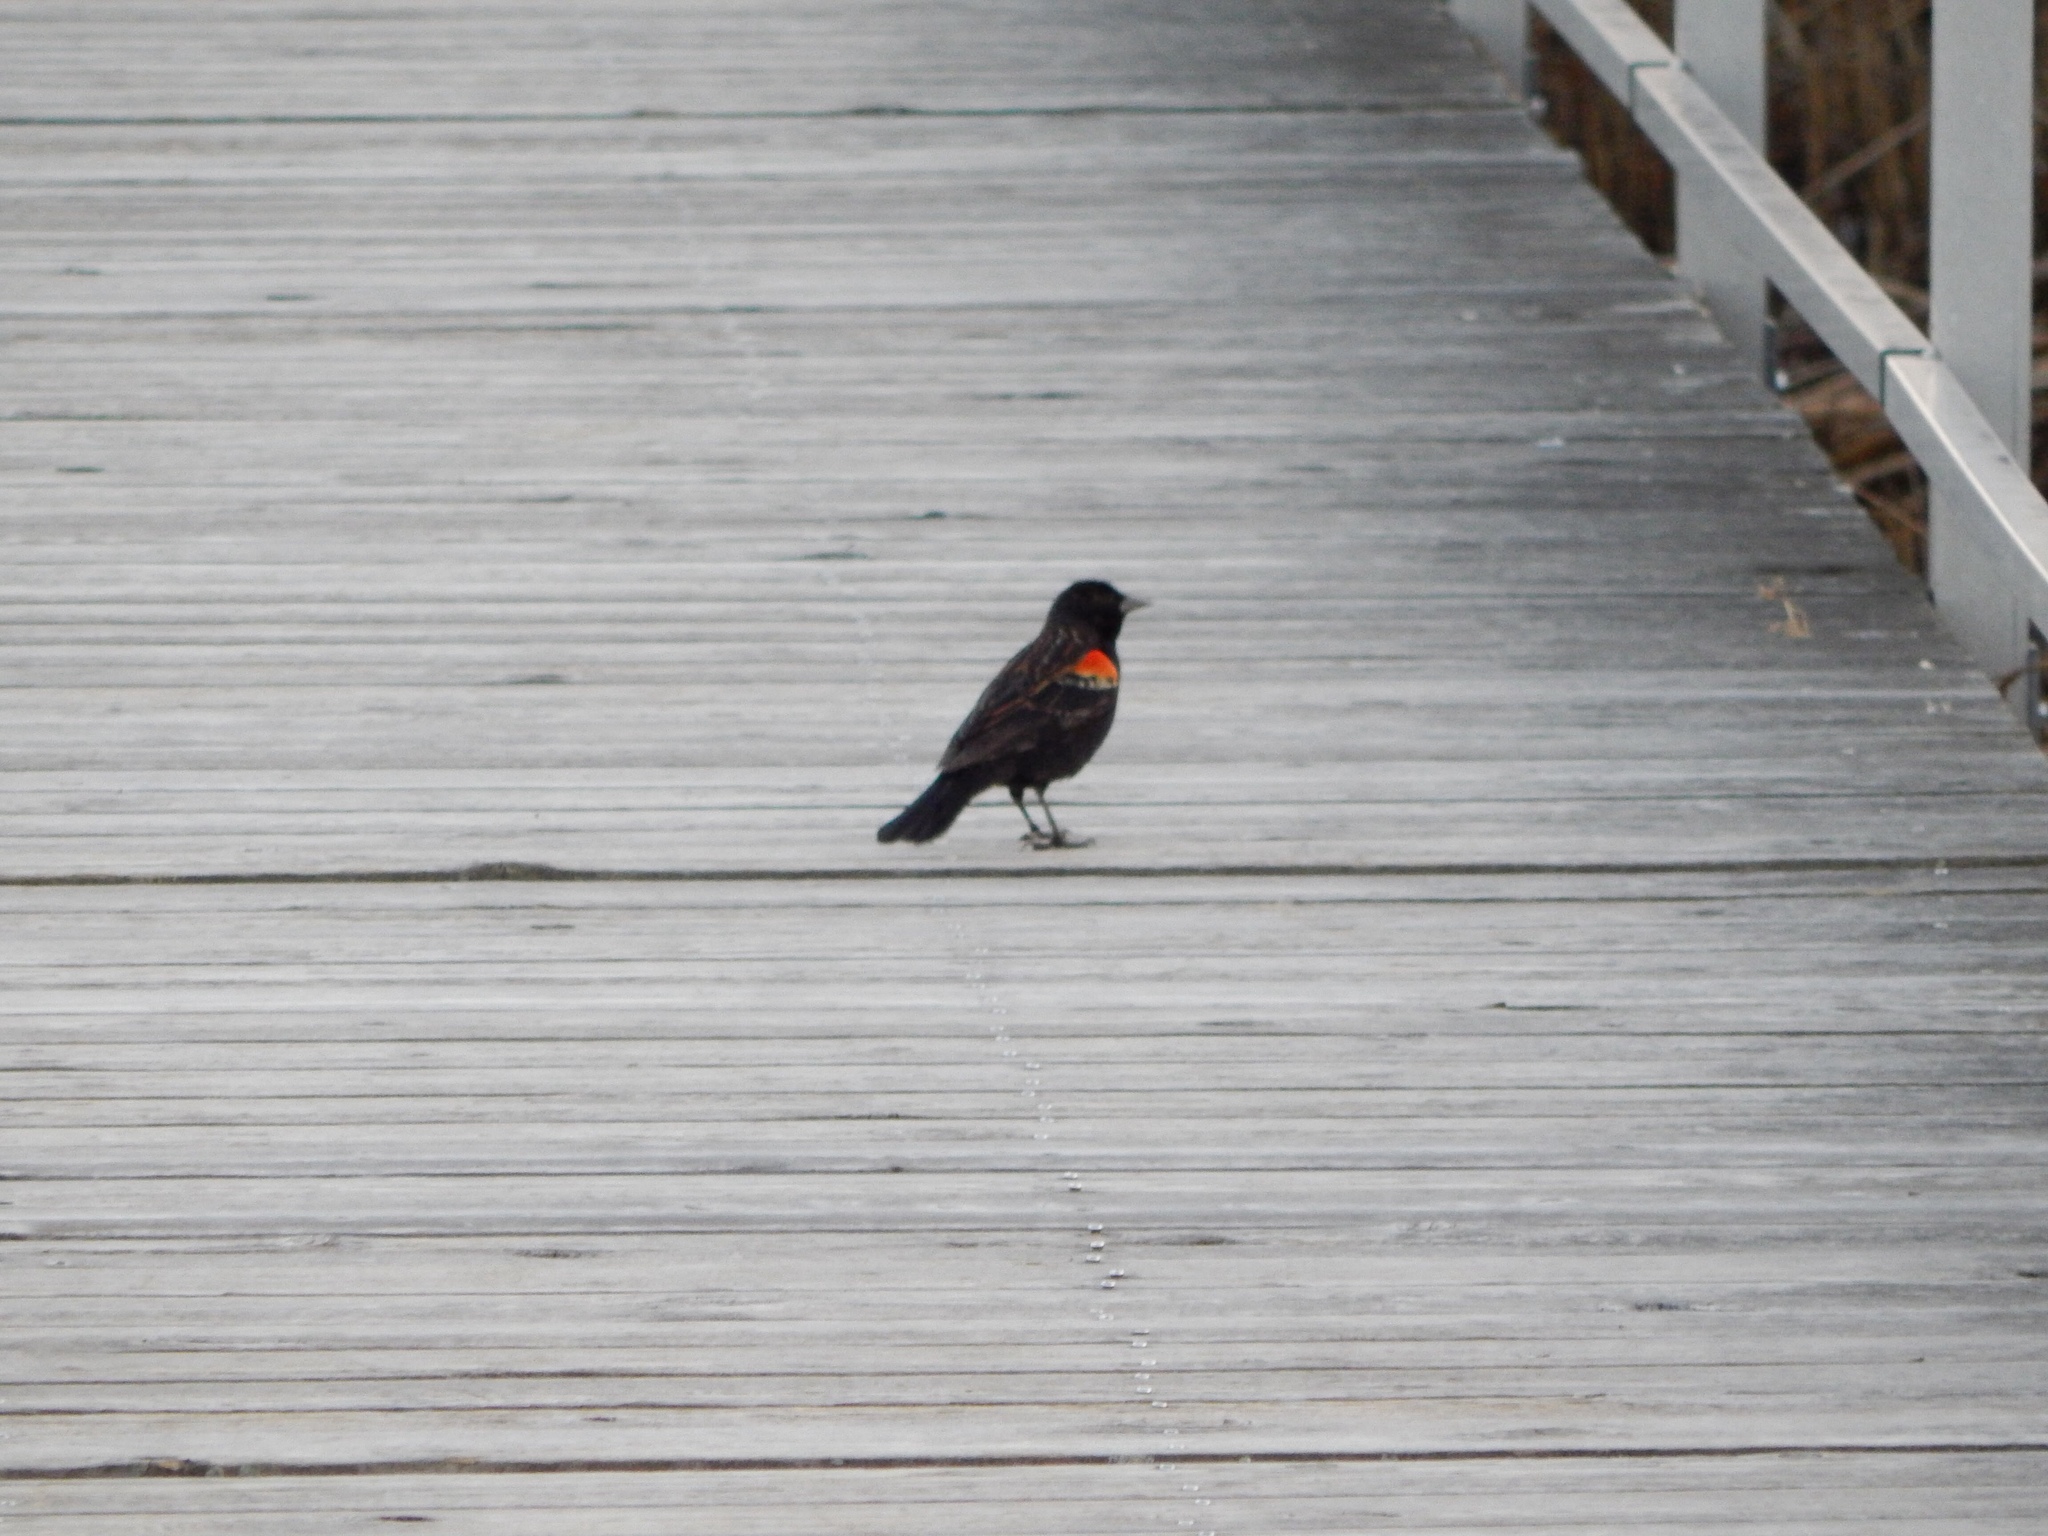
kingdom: Animalia
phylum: Chordata
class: Aves
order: Passeriformes
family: Icteridae
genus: Agelaius
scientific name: Agelaius phoeniceus
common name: Red-winged blackbird
